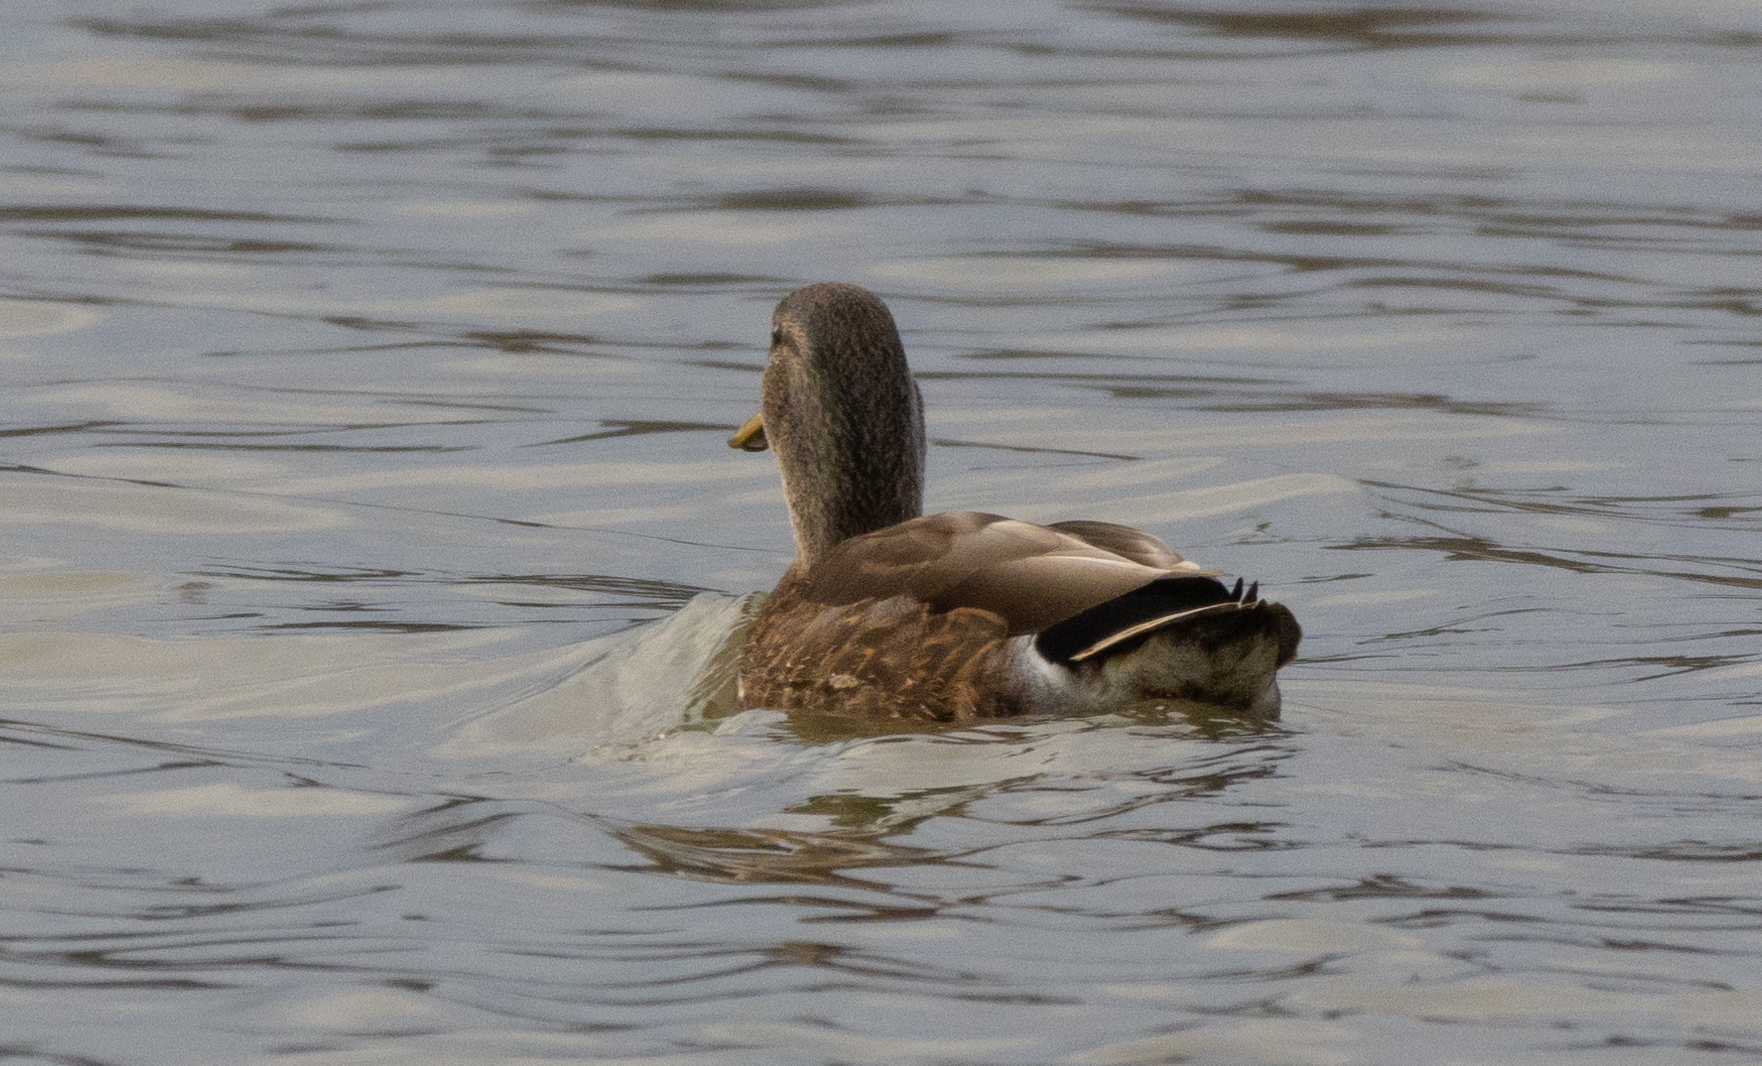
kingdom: Animalia
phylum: Chordata
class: Aves
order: Anseriformes
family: Anatidae
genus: Anas
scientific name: Anas
